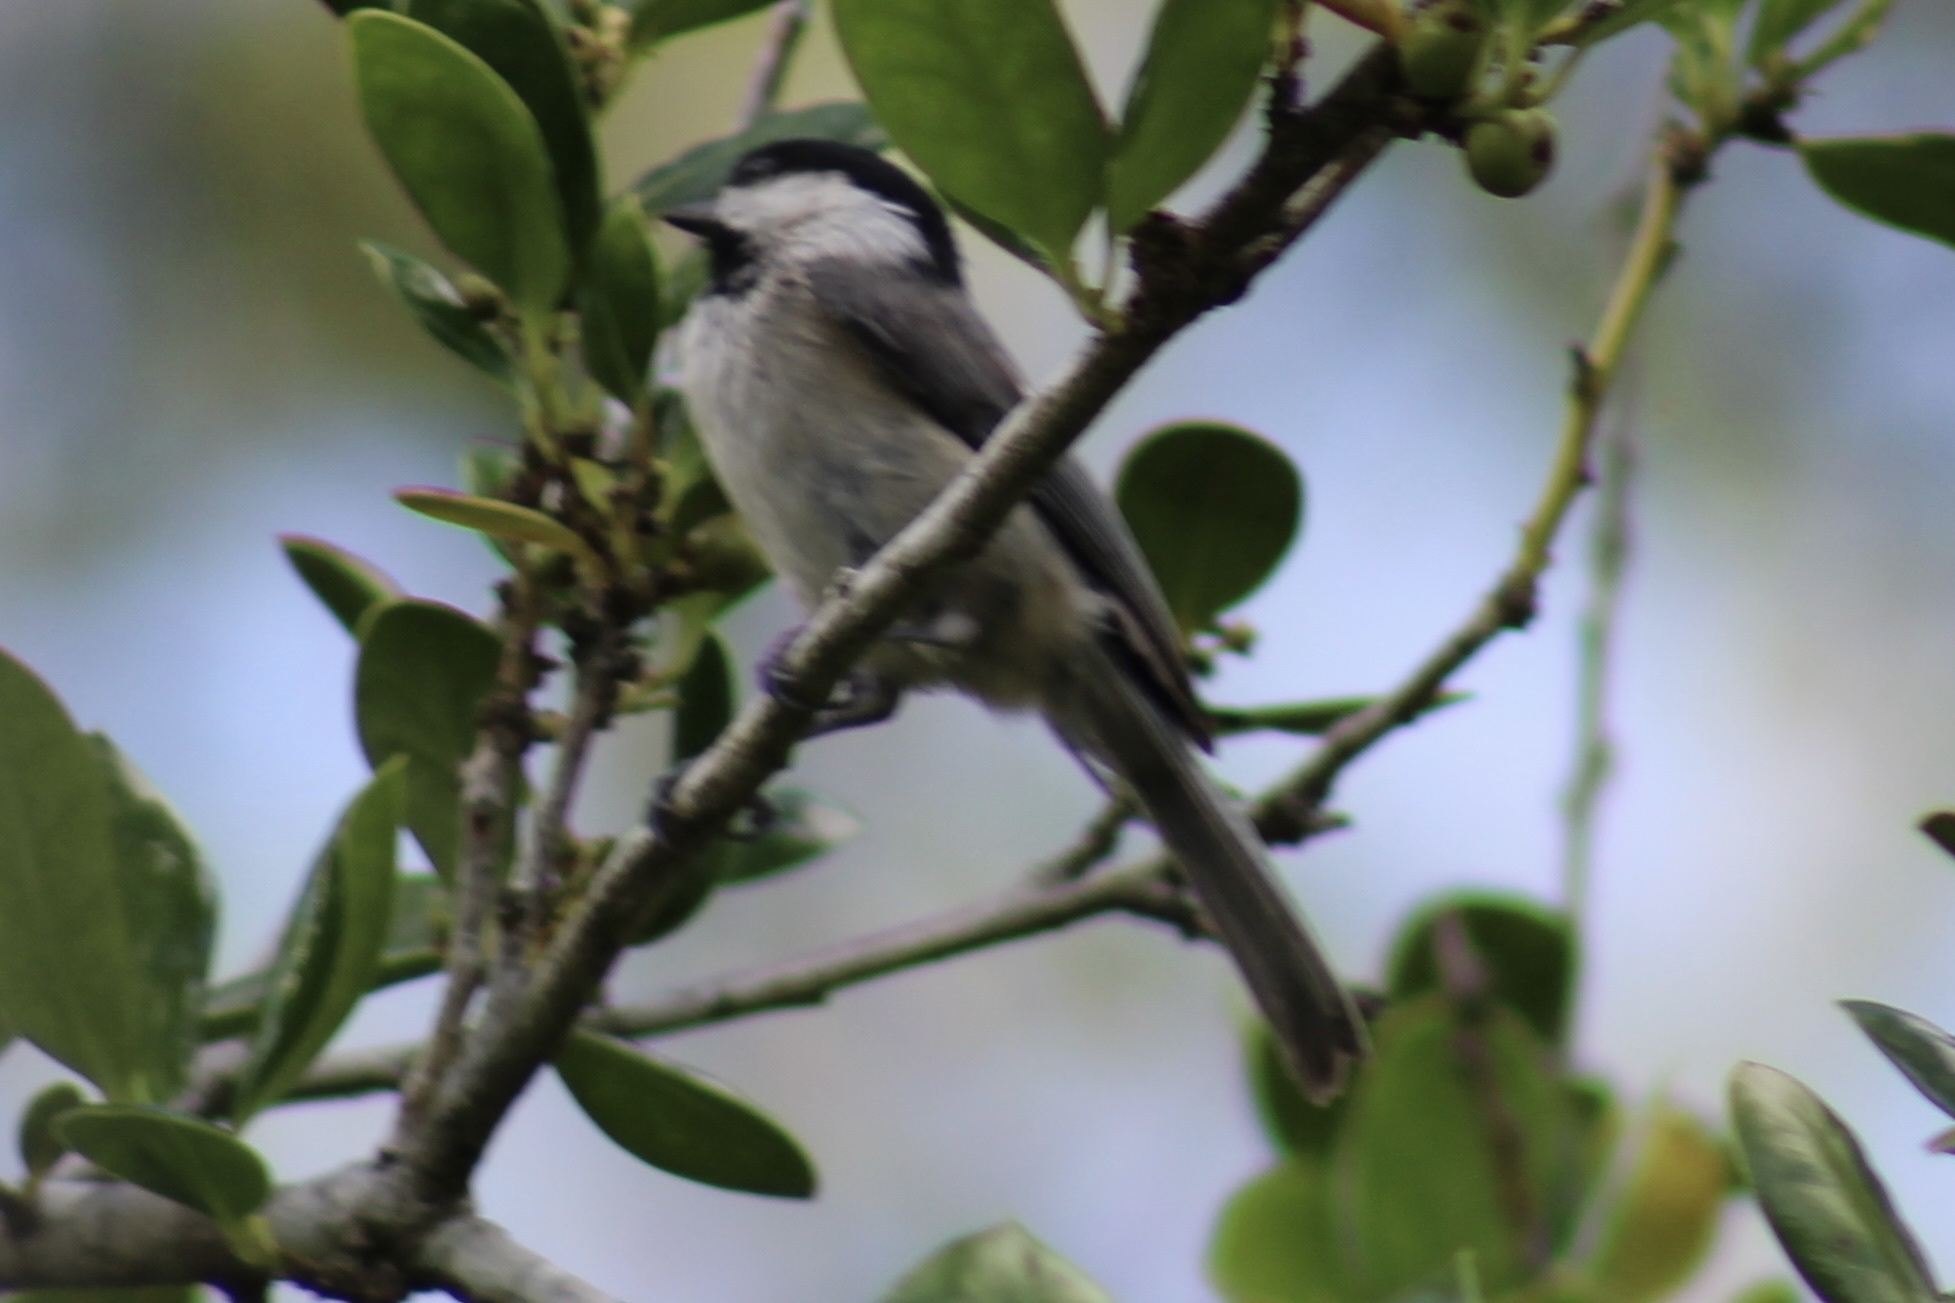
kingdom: Animalia
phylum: Chordata
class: Aves
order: Passeriformes
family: Paridae
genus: Poecile
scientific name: Poecile carolinensis
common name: Carolina chickadee
